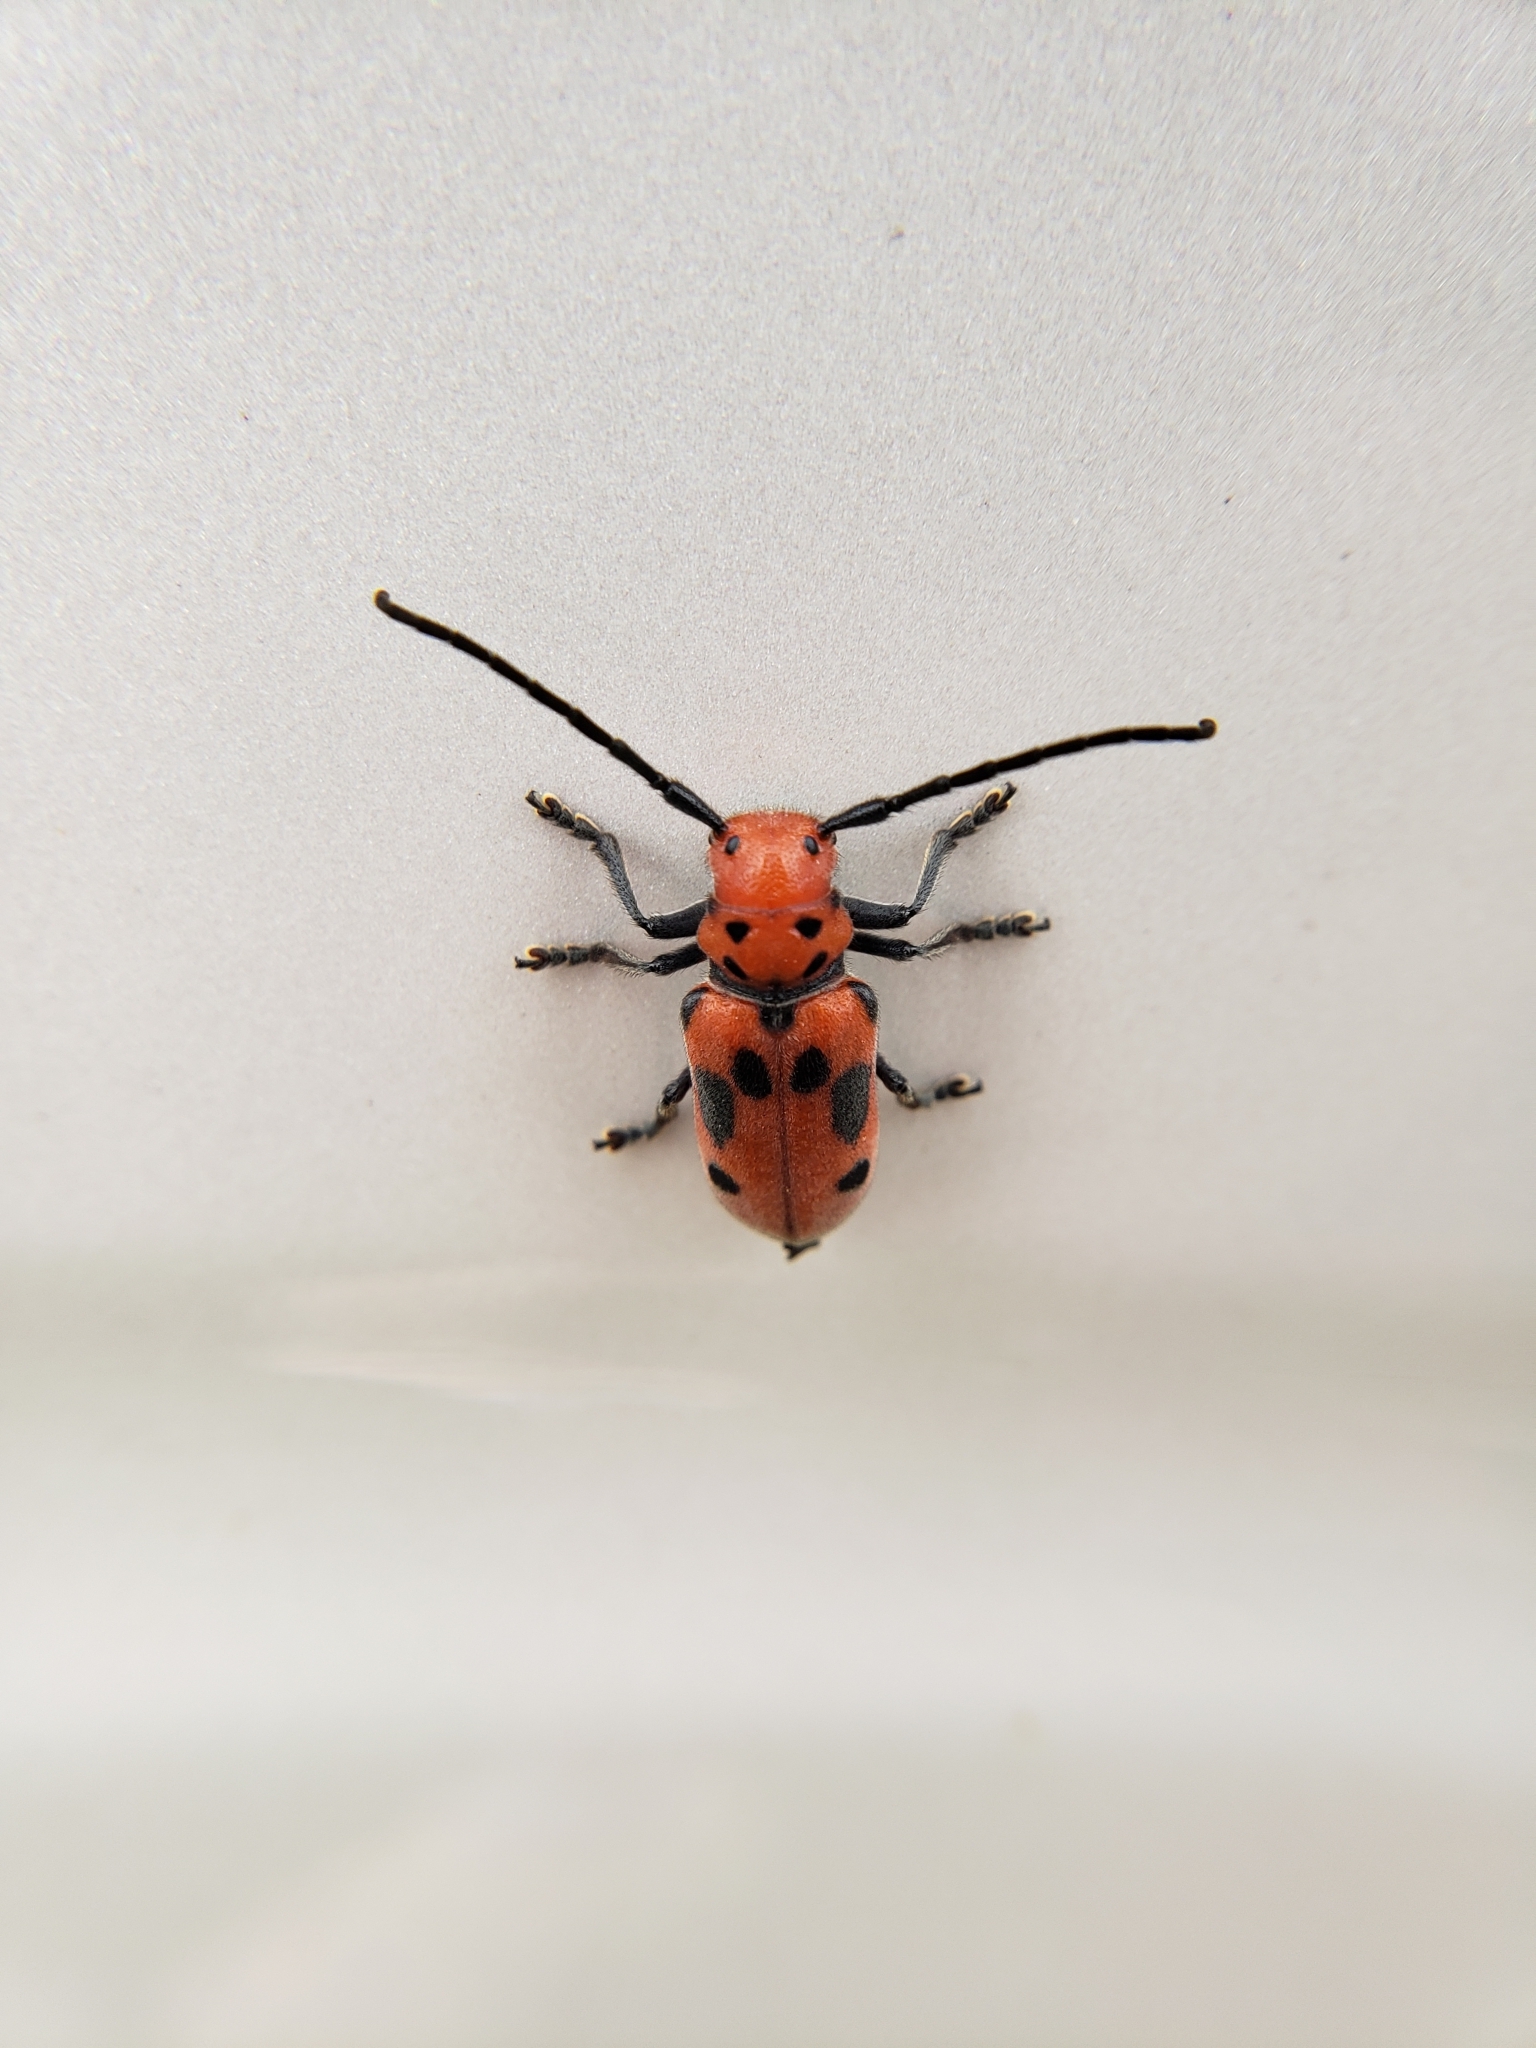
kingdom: Animalia
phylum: Arthropoda
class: Insecta
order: Coleoptera
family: Cerambycidae
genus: Tetraopes
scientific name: Tetraopes tetrophthalmus
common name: Red milkweed beetle
